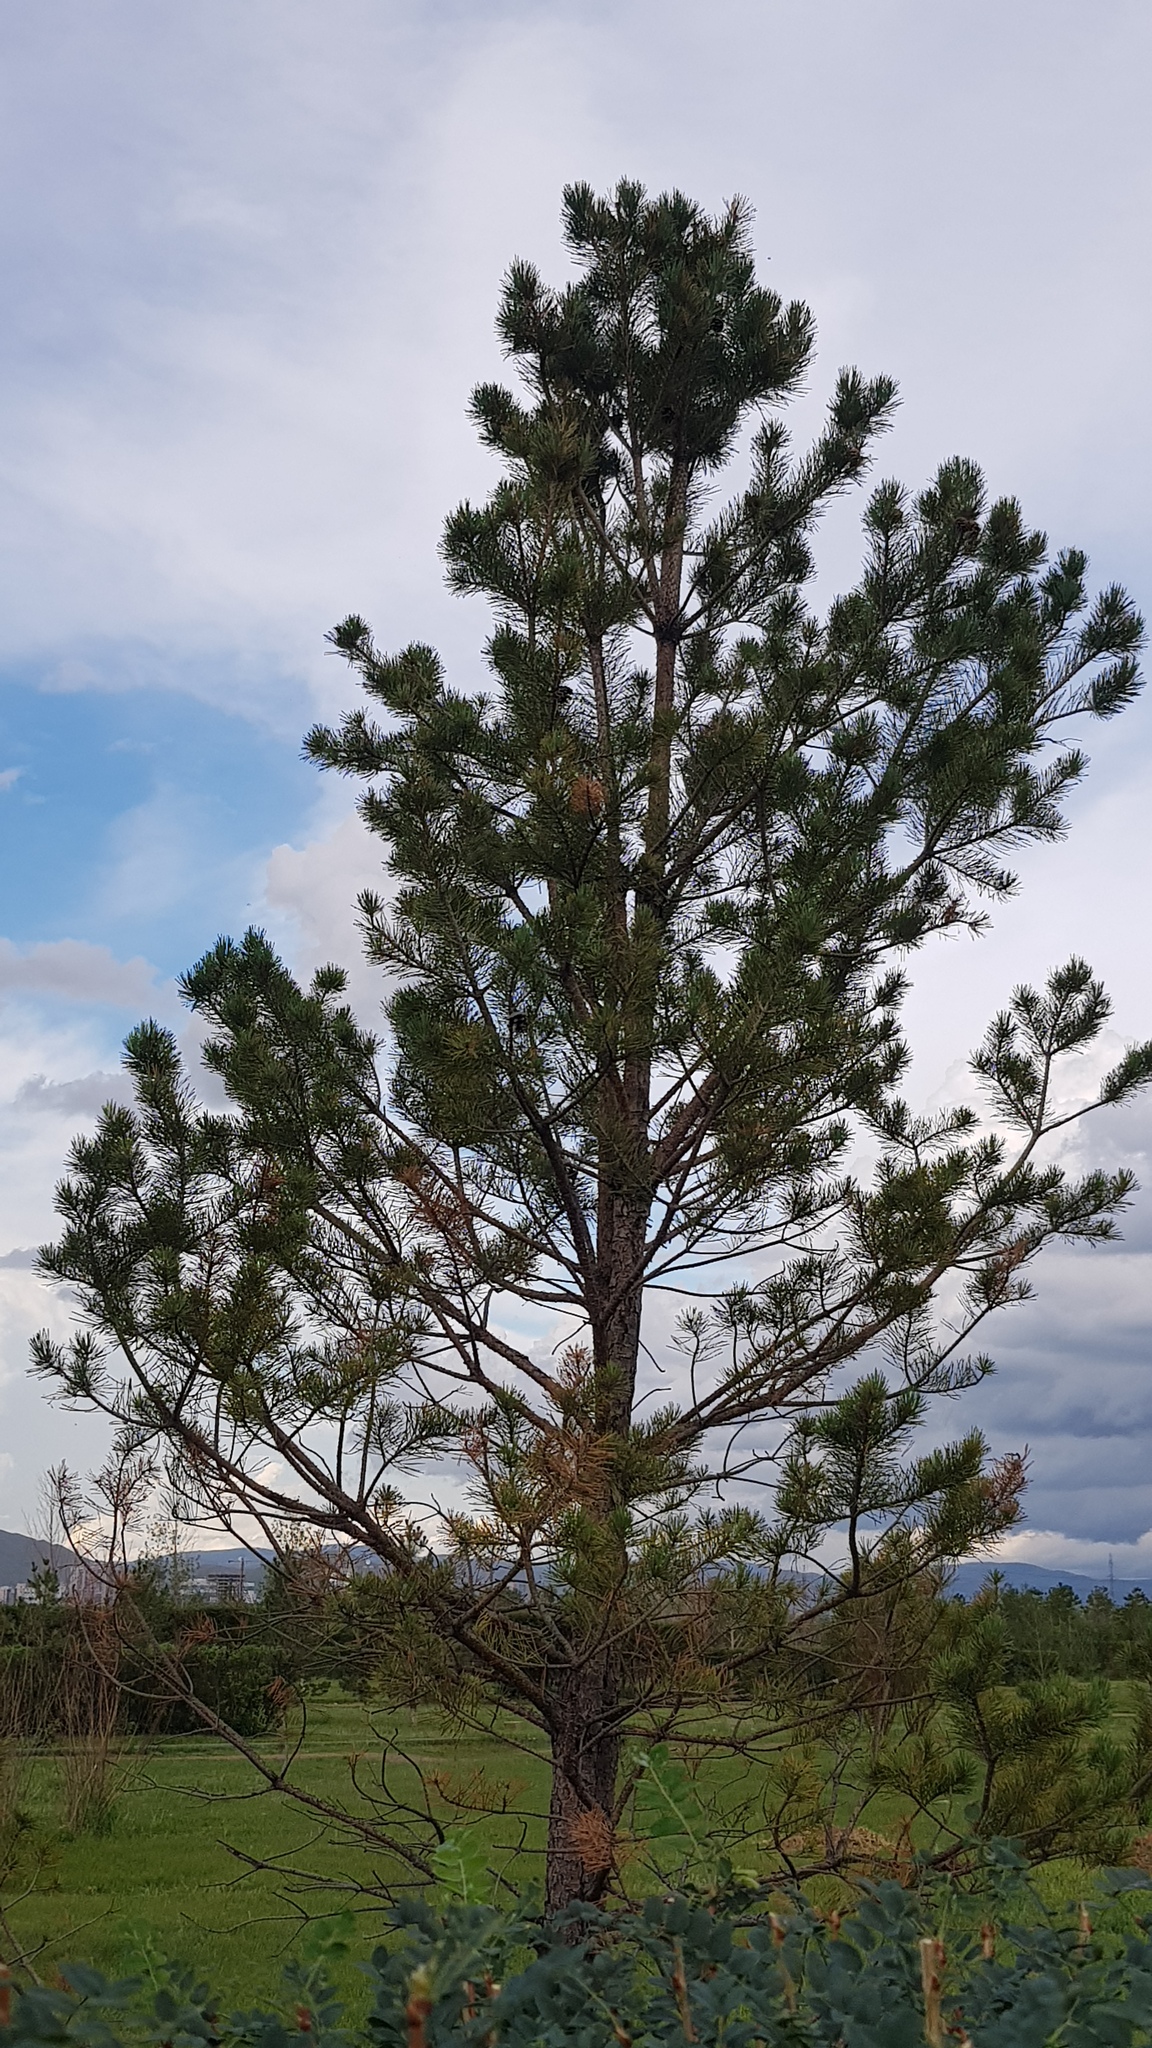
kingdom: Plantae
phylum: Tracheophyta
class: Pinopsida
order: Pinales
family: Pinaceae
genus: Pinus
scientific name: Pinus sylvestris
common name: Scots pine
